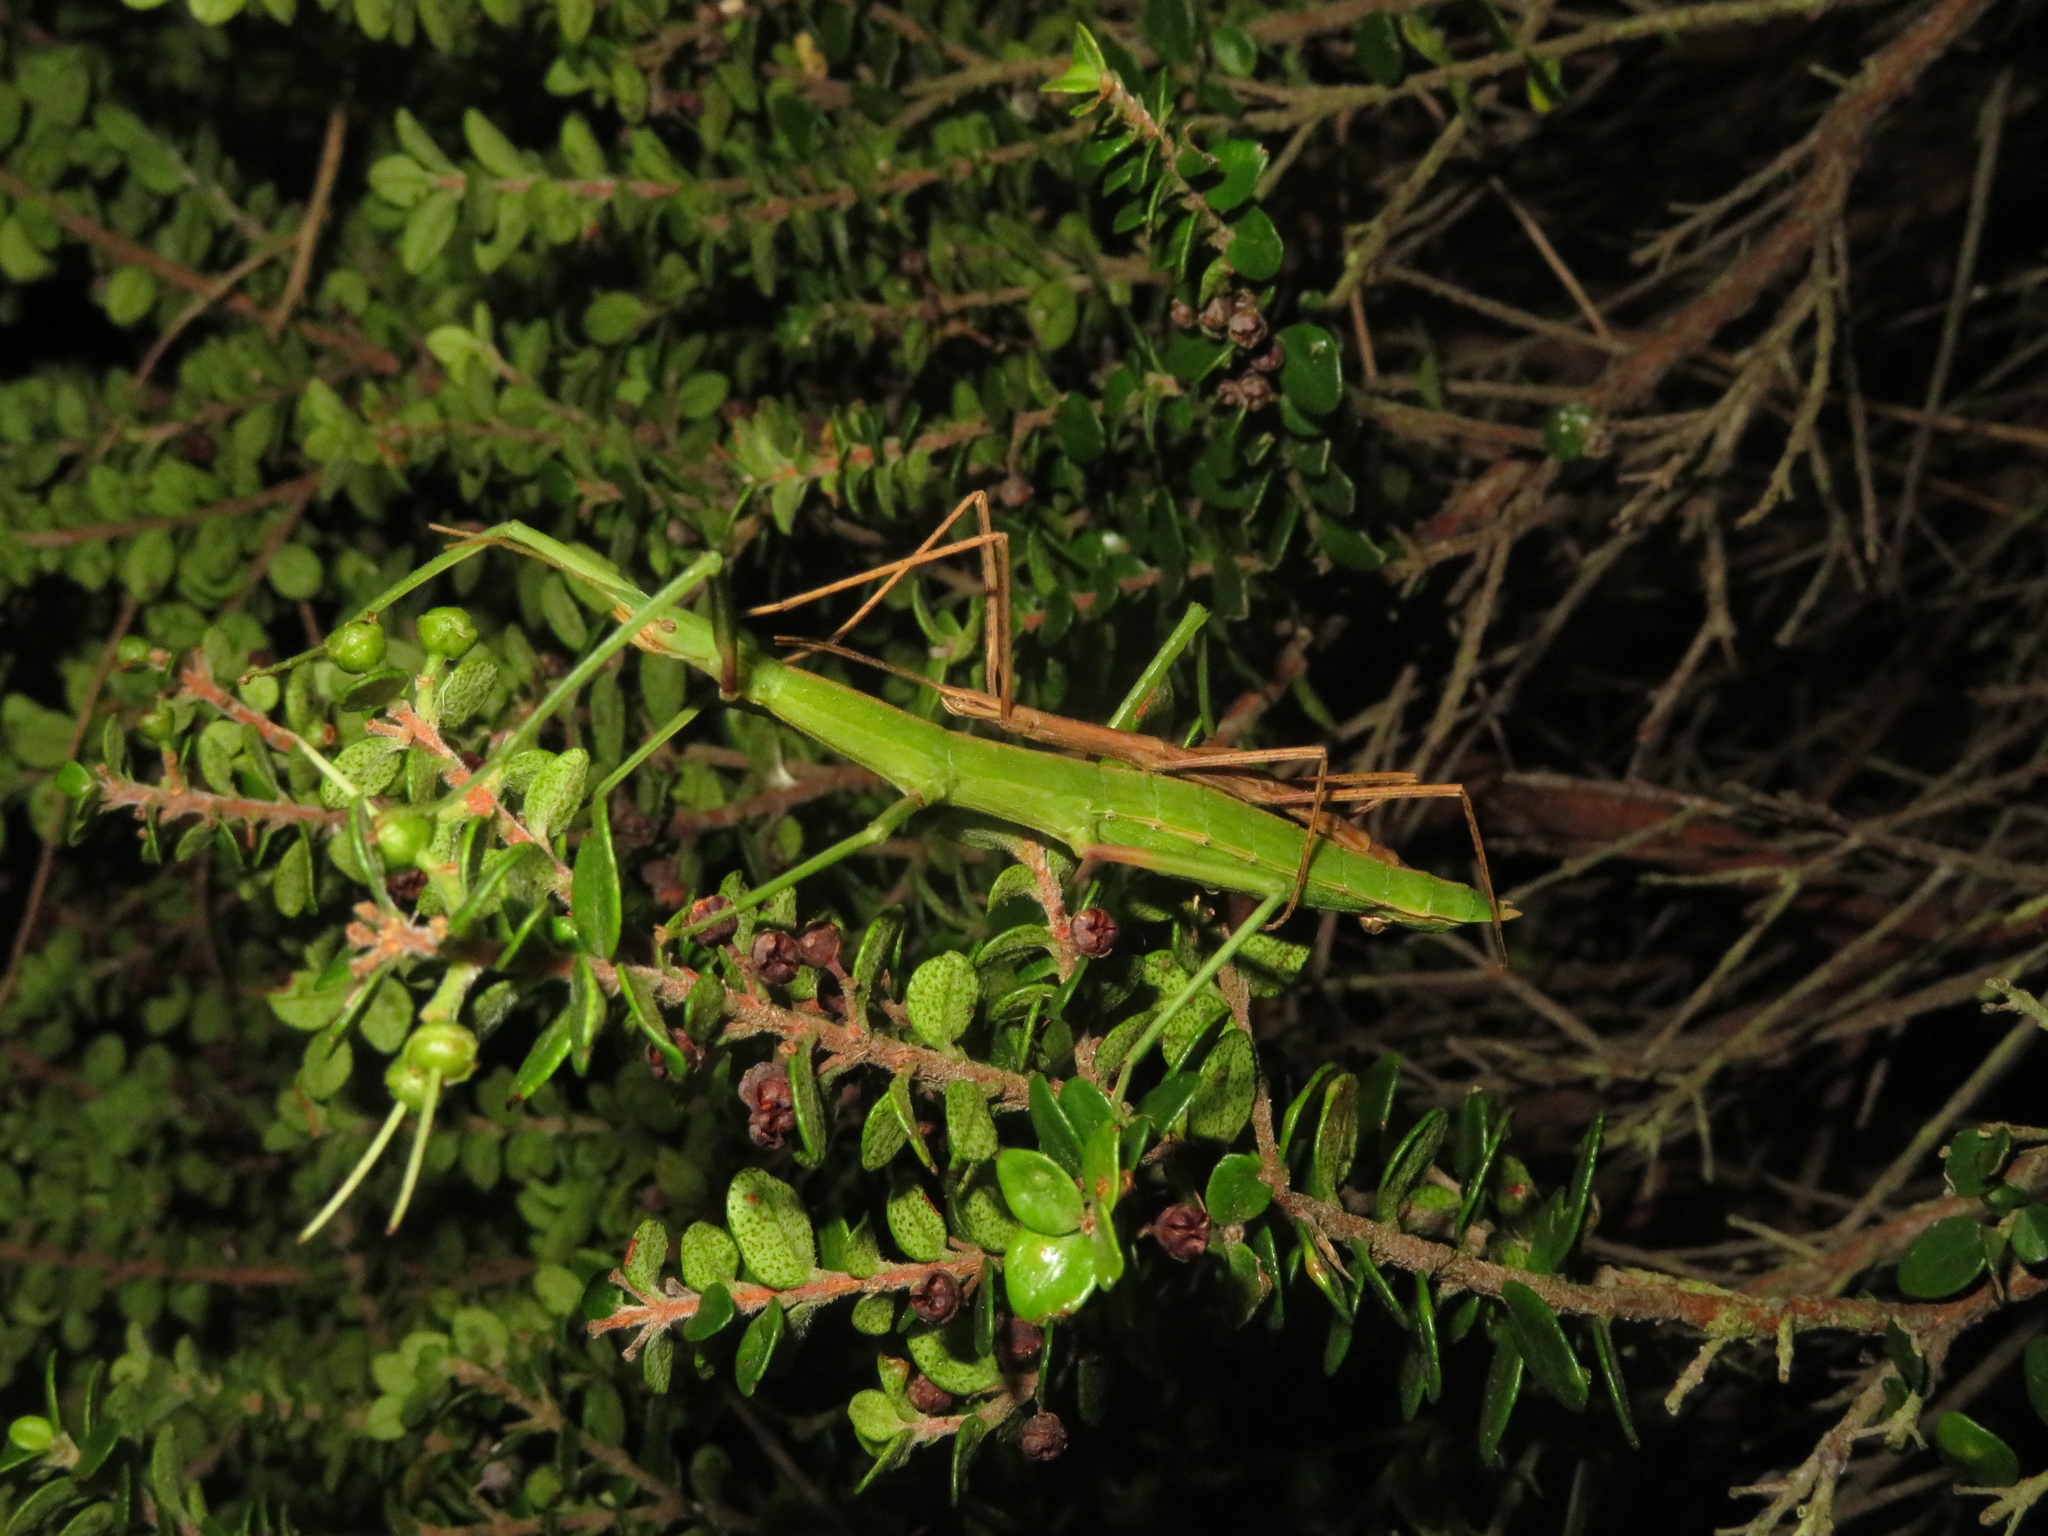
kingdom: Animalia
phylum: Arthropoda
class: Insecta
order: Phasmida
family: Phasmatidae
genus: Tectarchus
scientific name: Tectarchus huttoni
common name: The common ridge-backed stick insect
